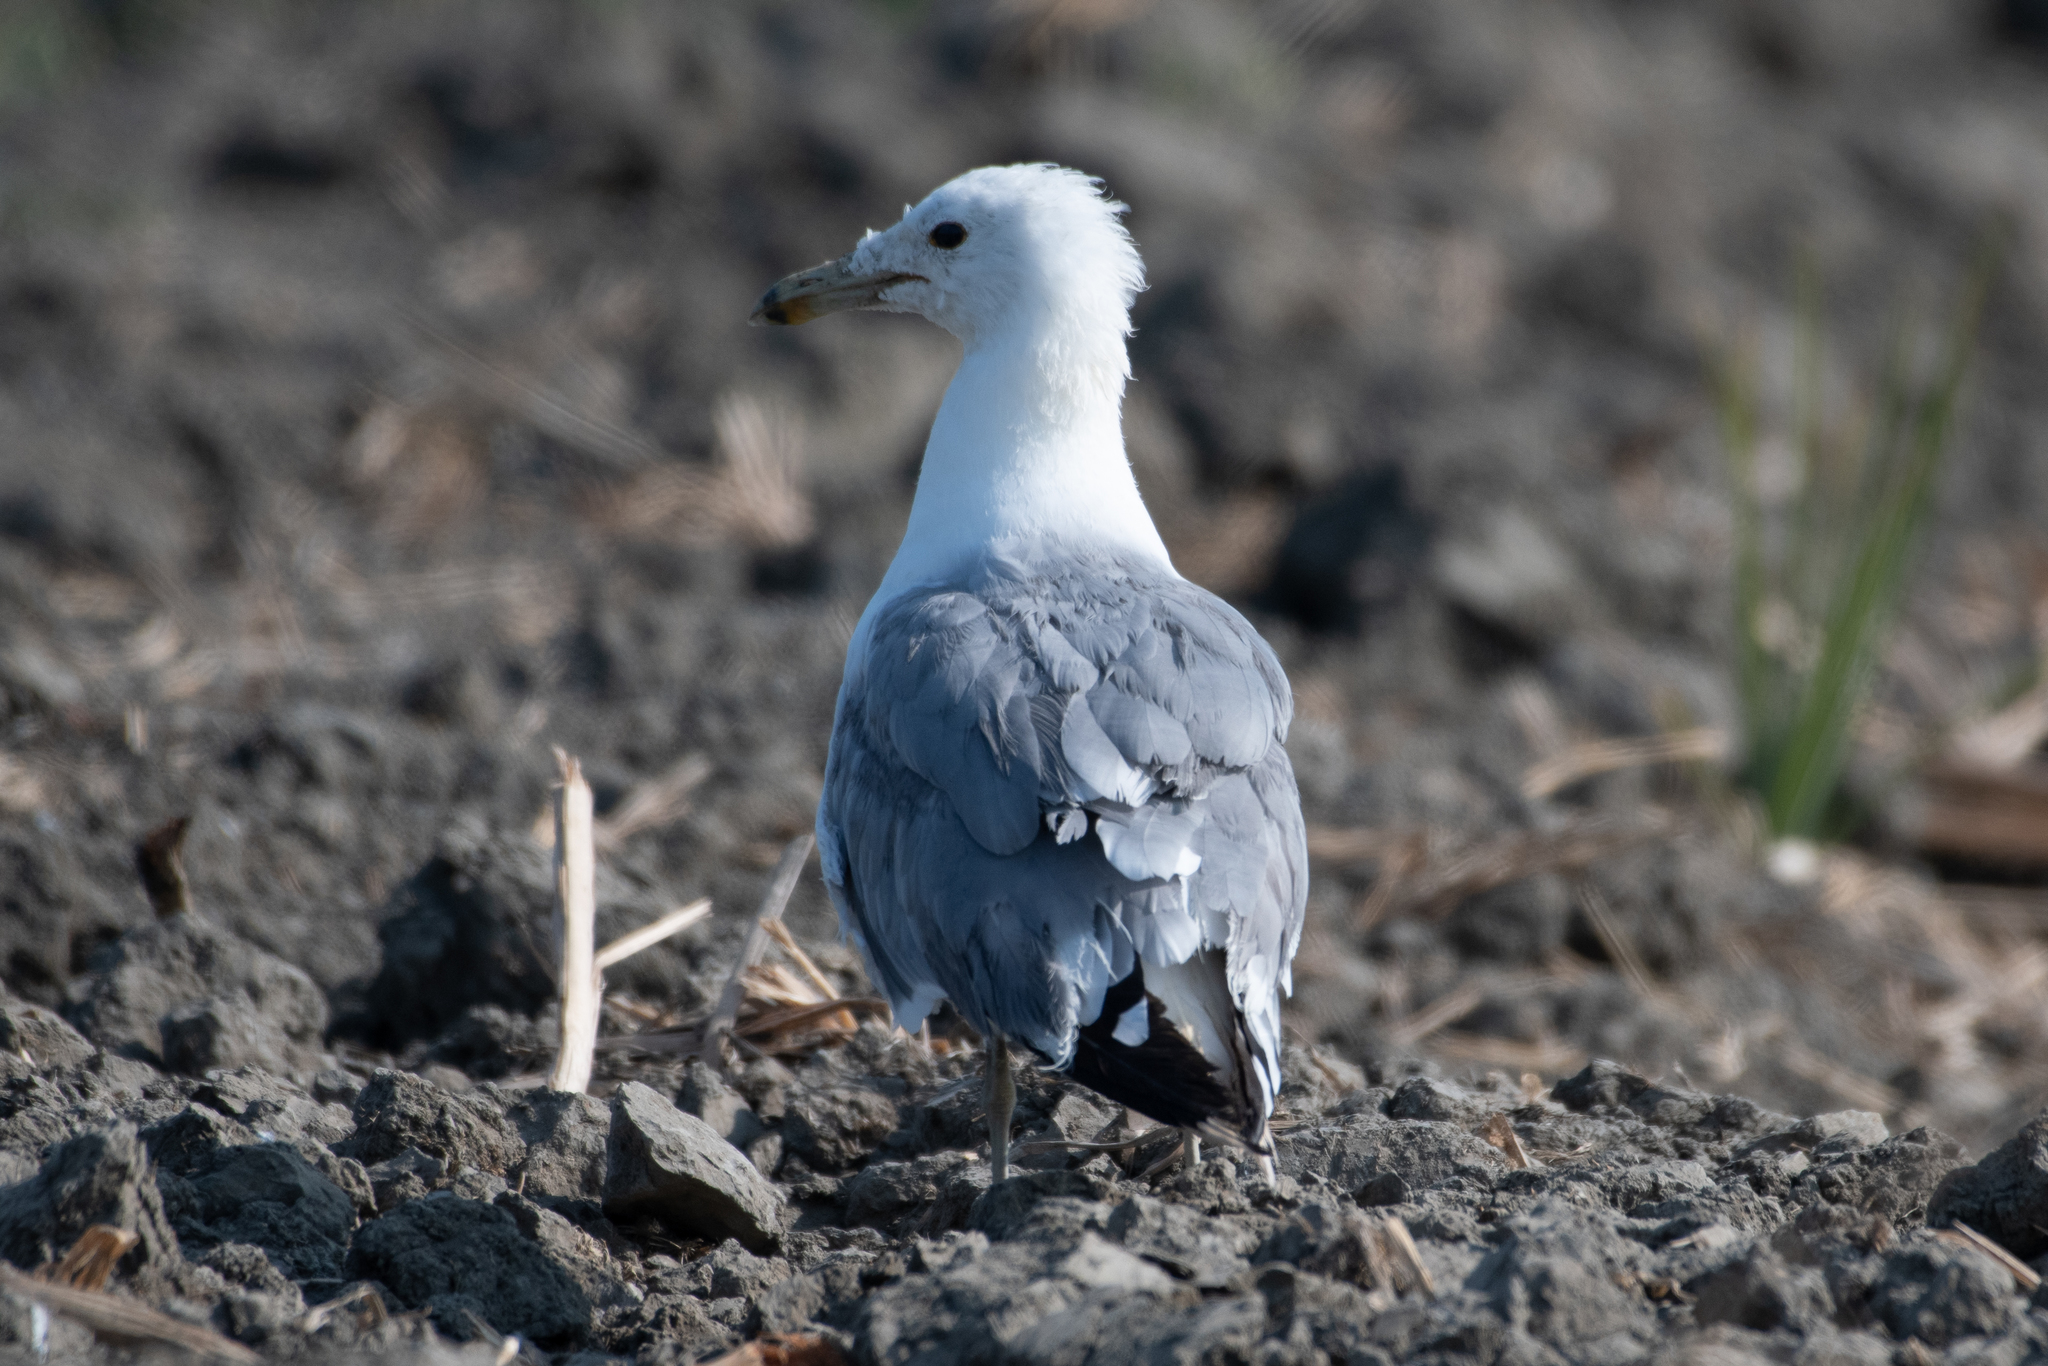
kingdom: Animalia
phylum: Chordata
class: Aves
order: Charadriiformes
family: Laridae
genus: Larus
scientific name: Larus californicus
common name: California gull
